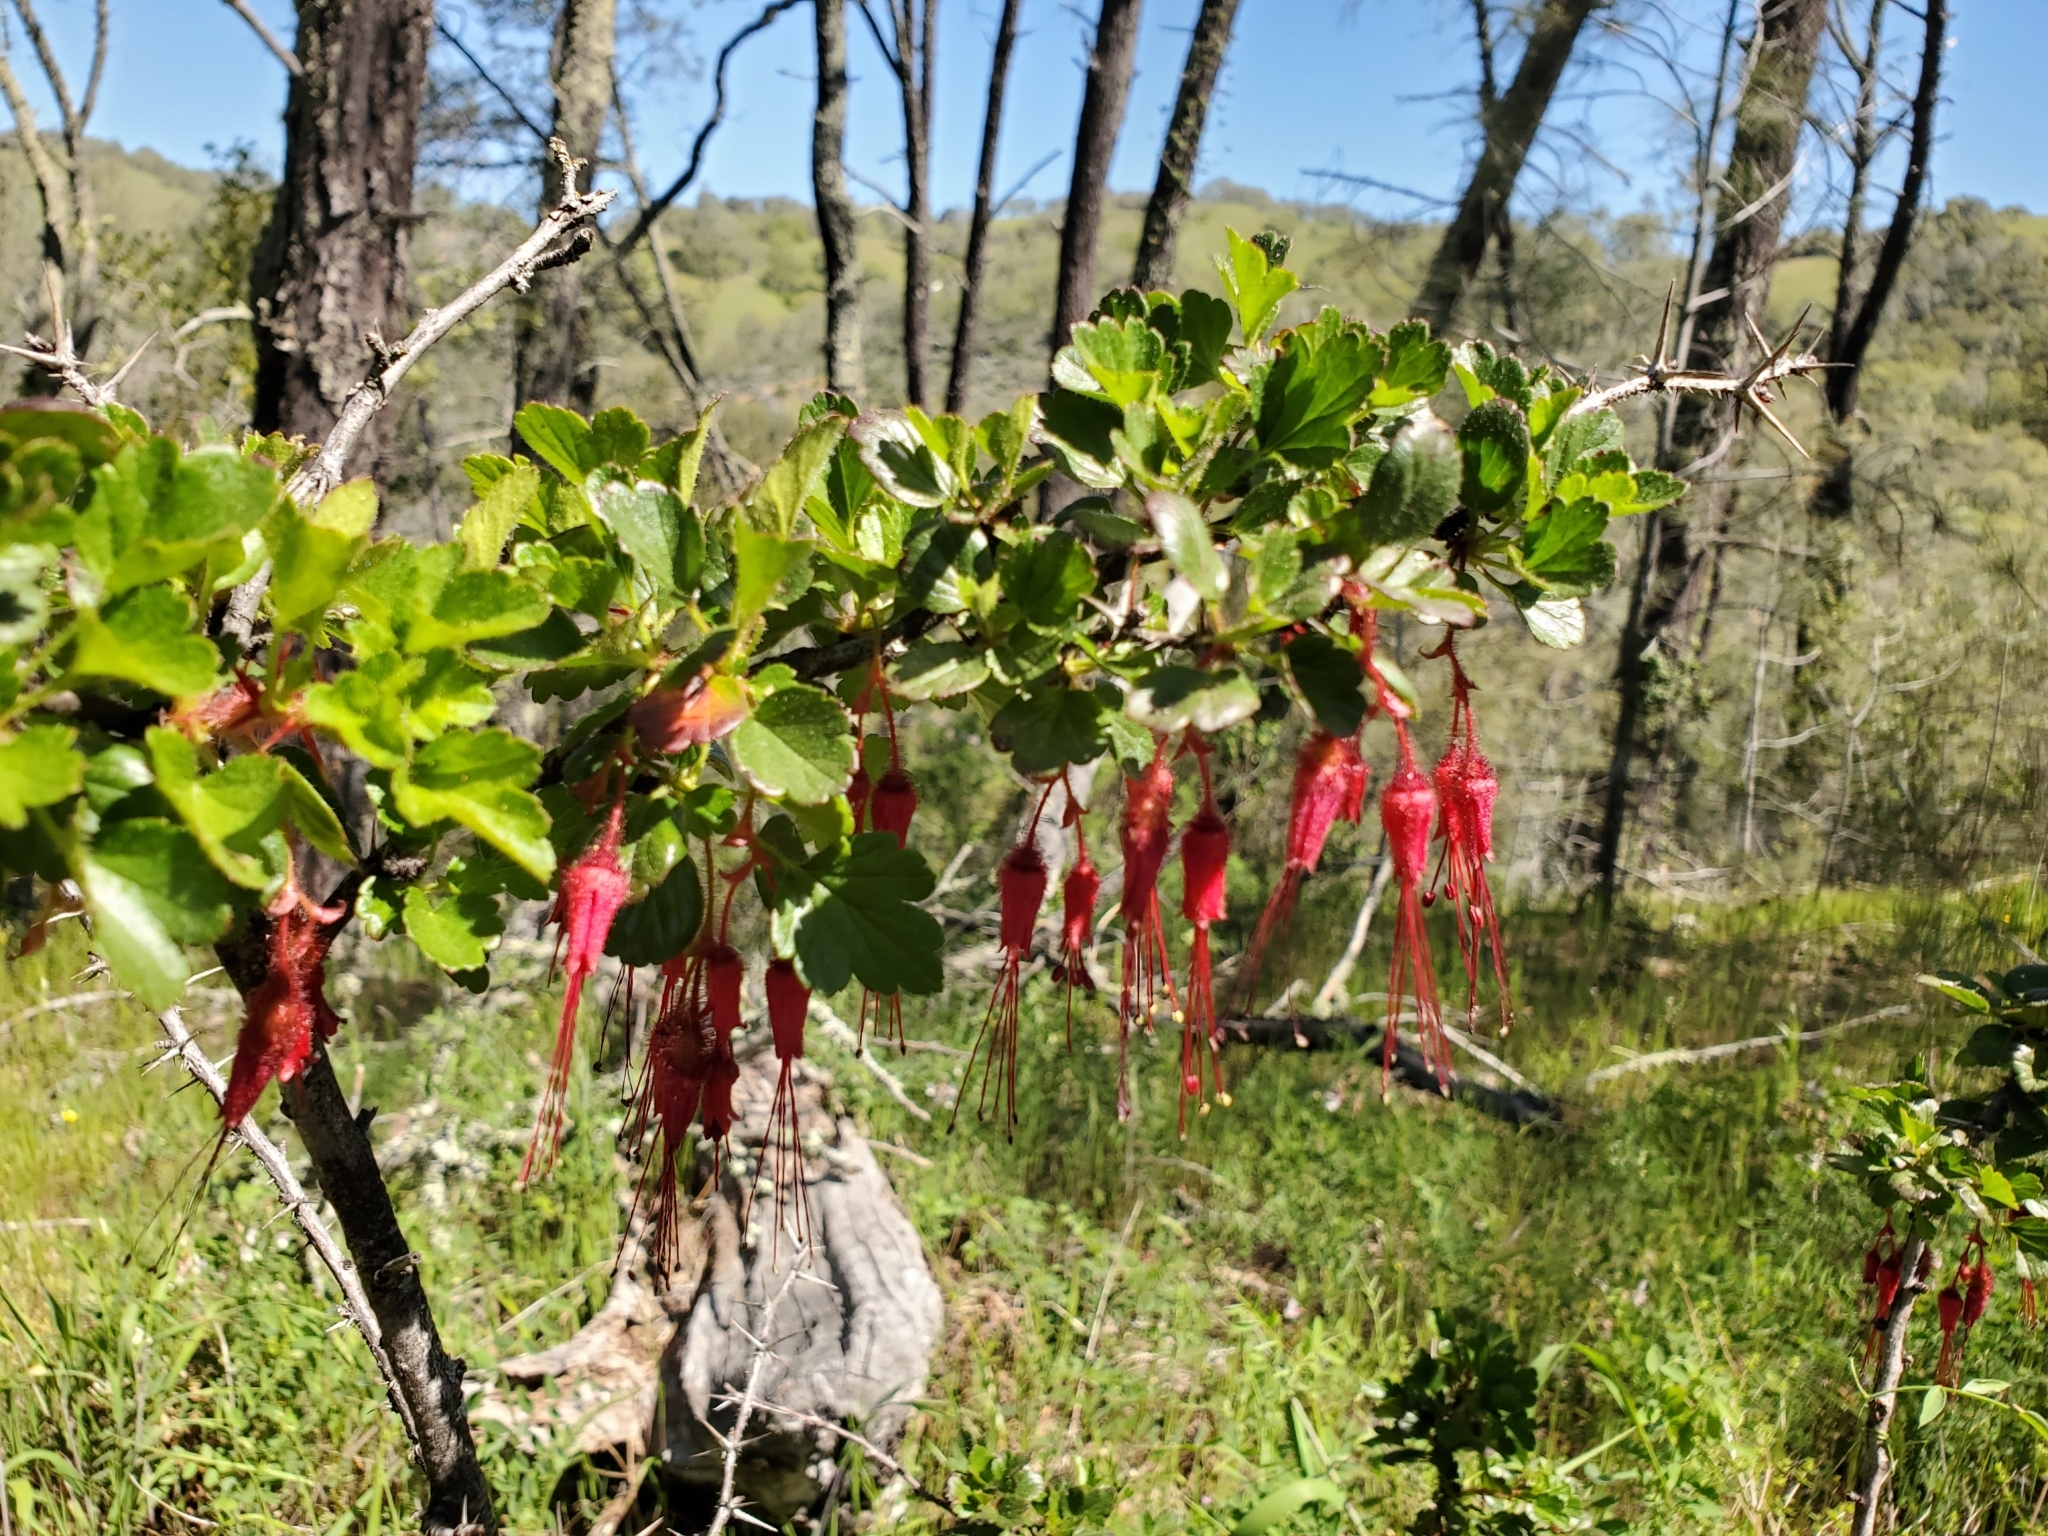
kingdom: Plantae
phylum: Tracheophyta
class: Magnoliopsida
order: Saxifragales
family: Grossulariaceae
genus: Ribes
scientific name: Ribes speciosum
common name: Fuchsia-flower gooseberry
